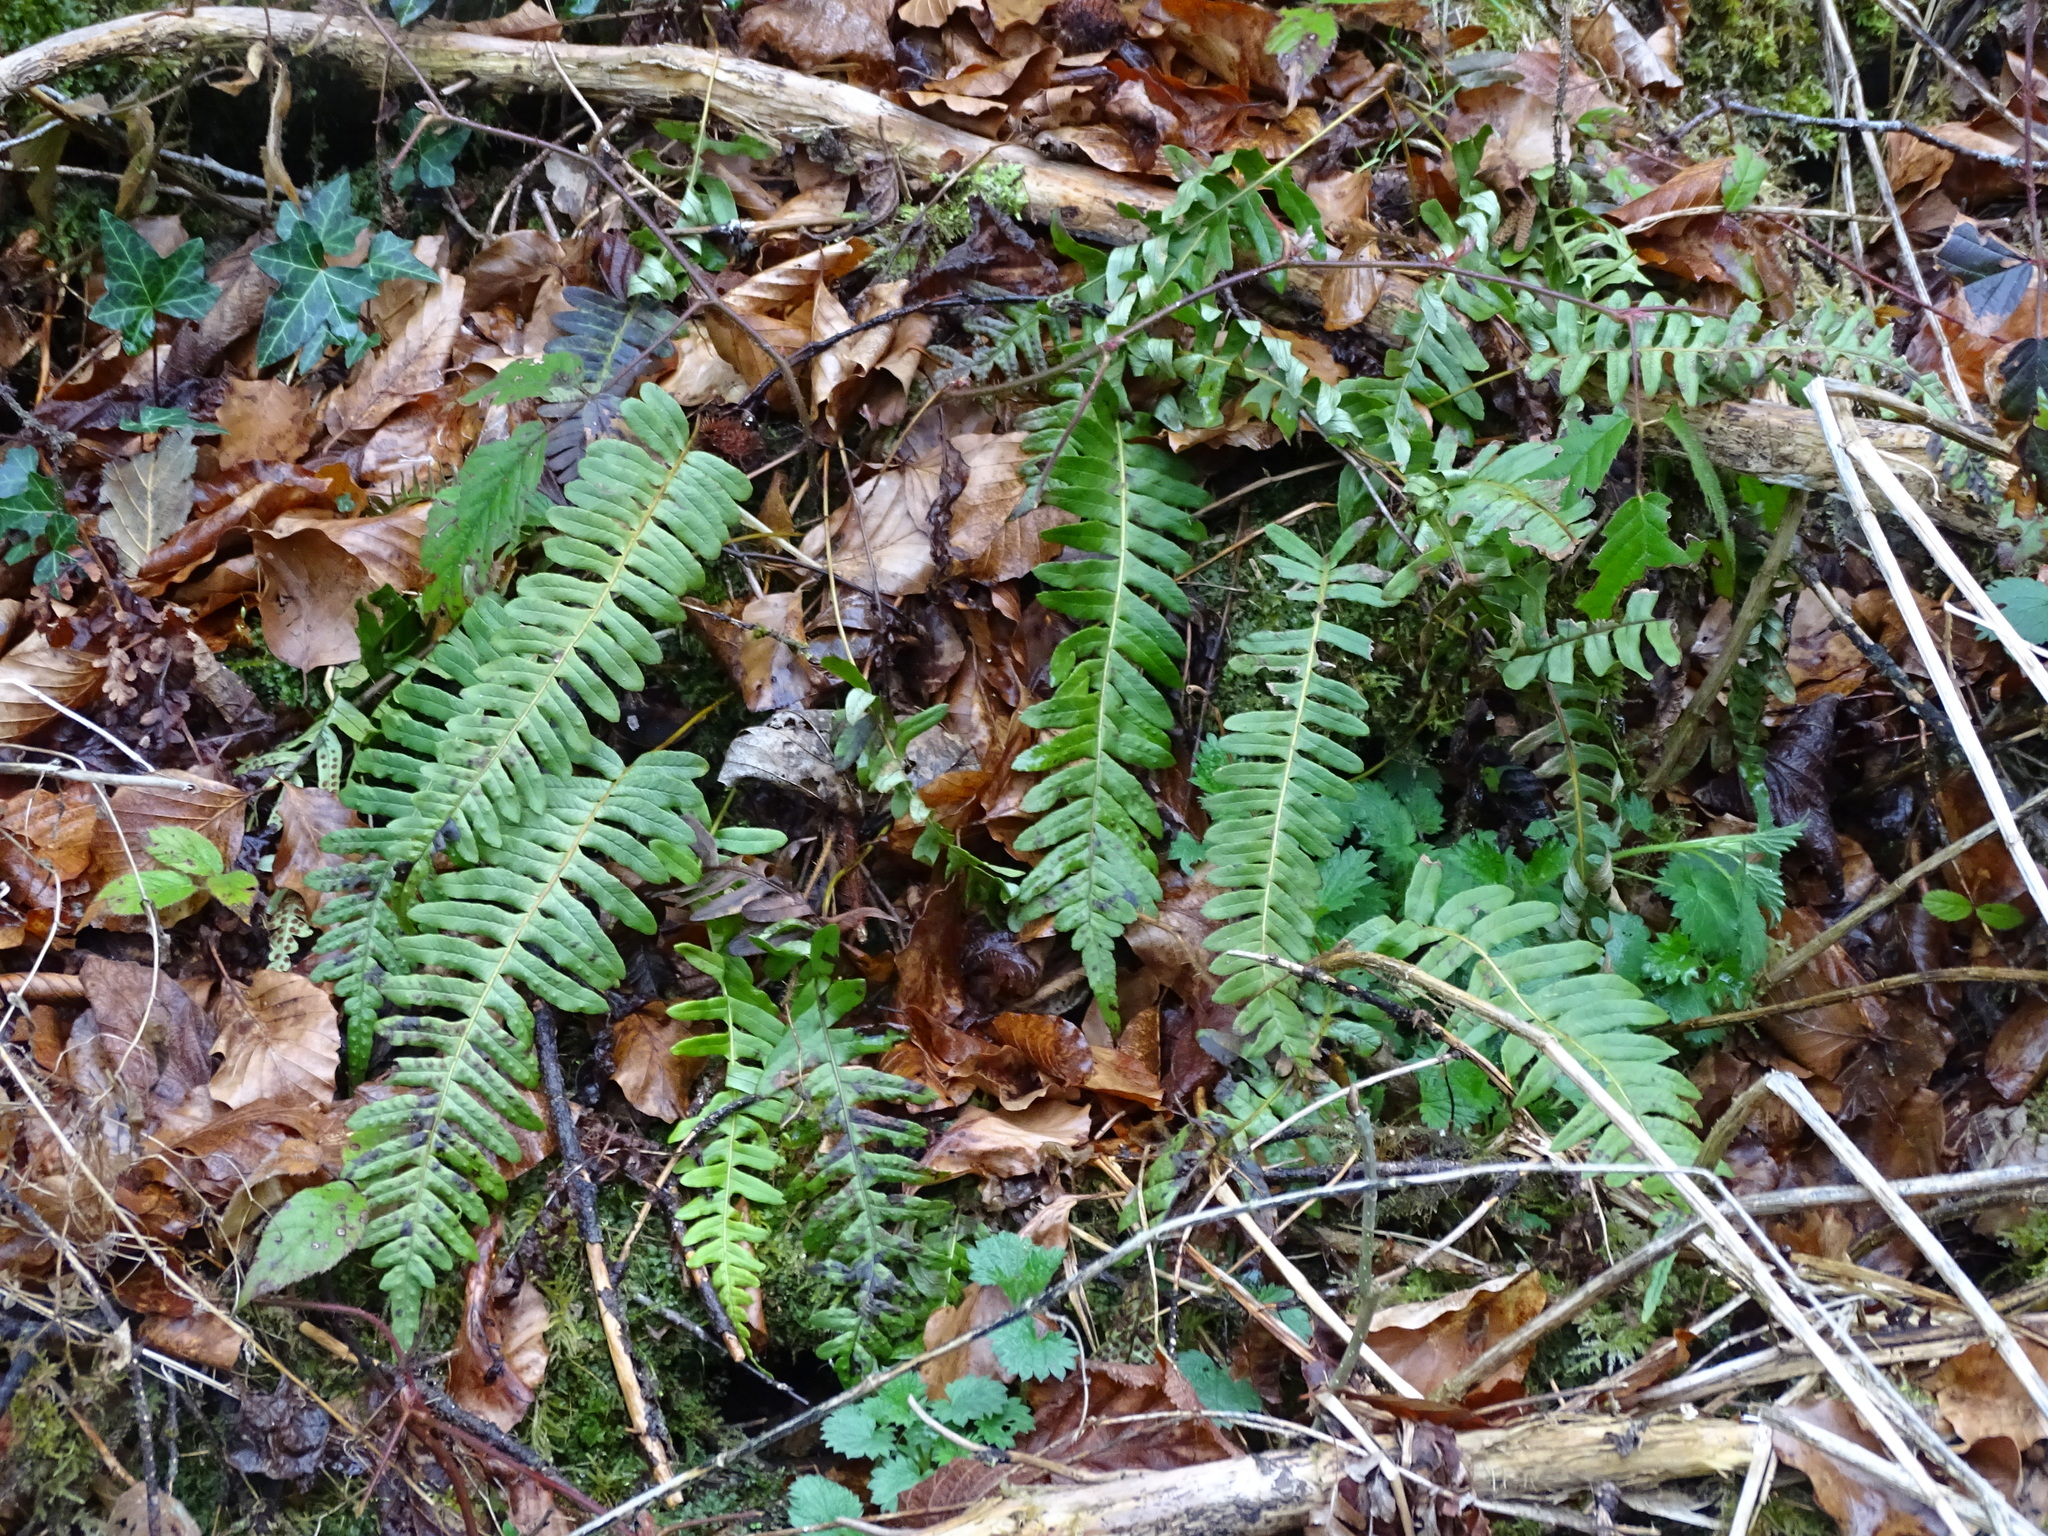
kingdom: Plantae
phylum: Tracheophyta
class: Polypodiopsida
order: Polypodiales
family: Polypodiaceae
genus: Polypodium
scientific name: Polypodium vulgare
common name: Common polypody
